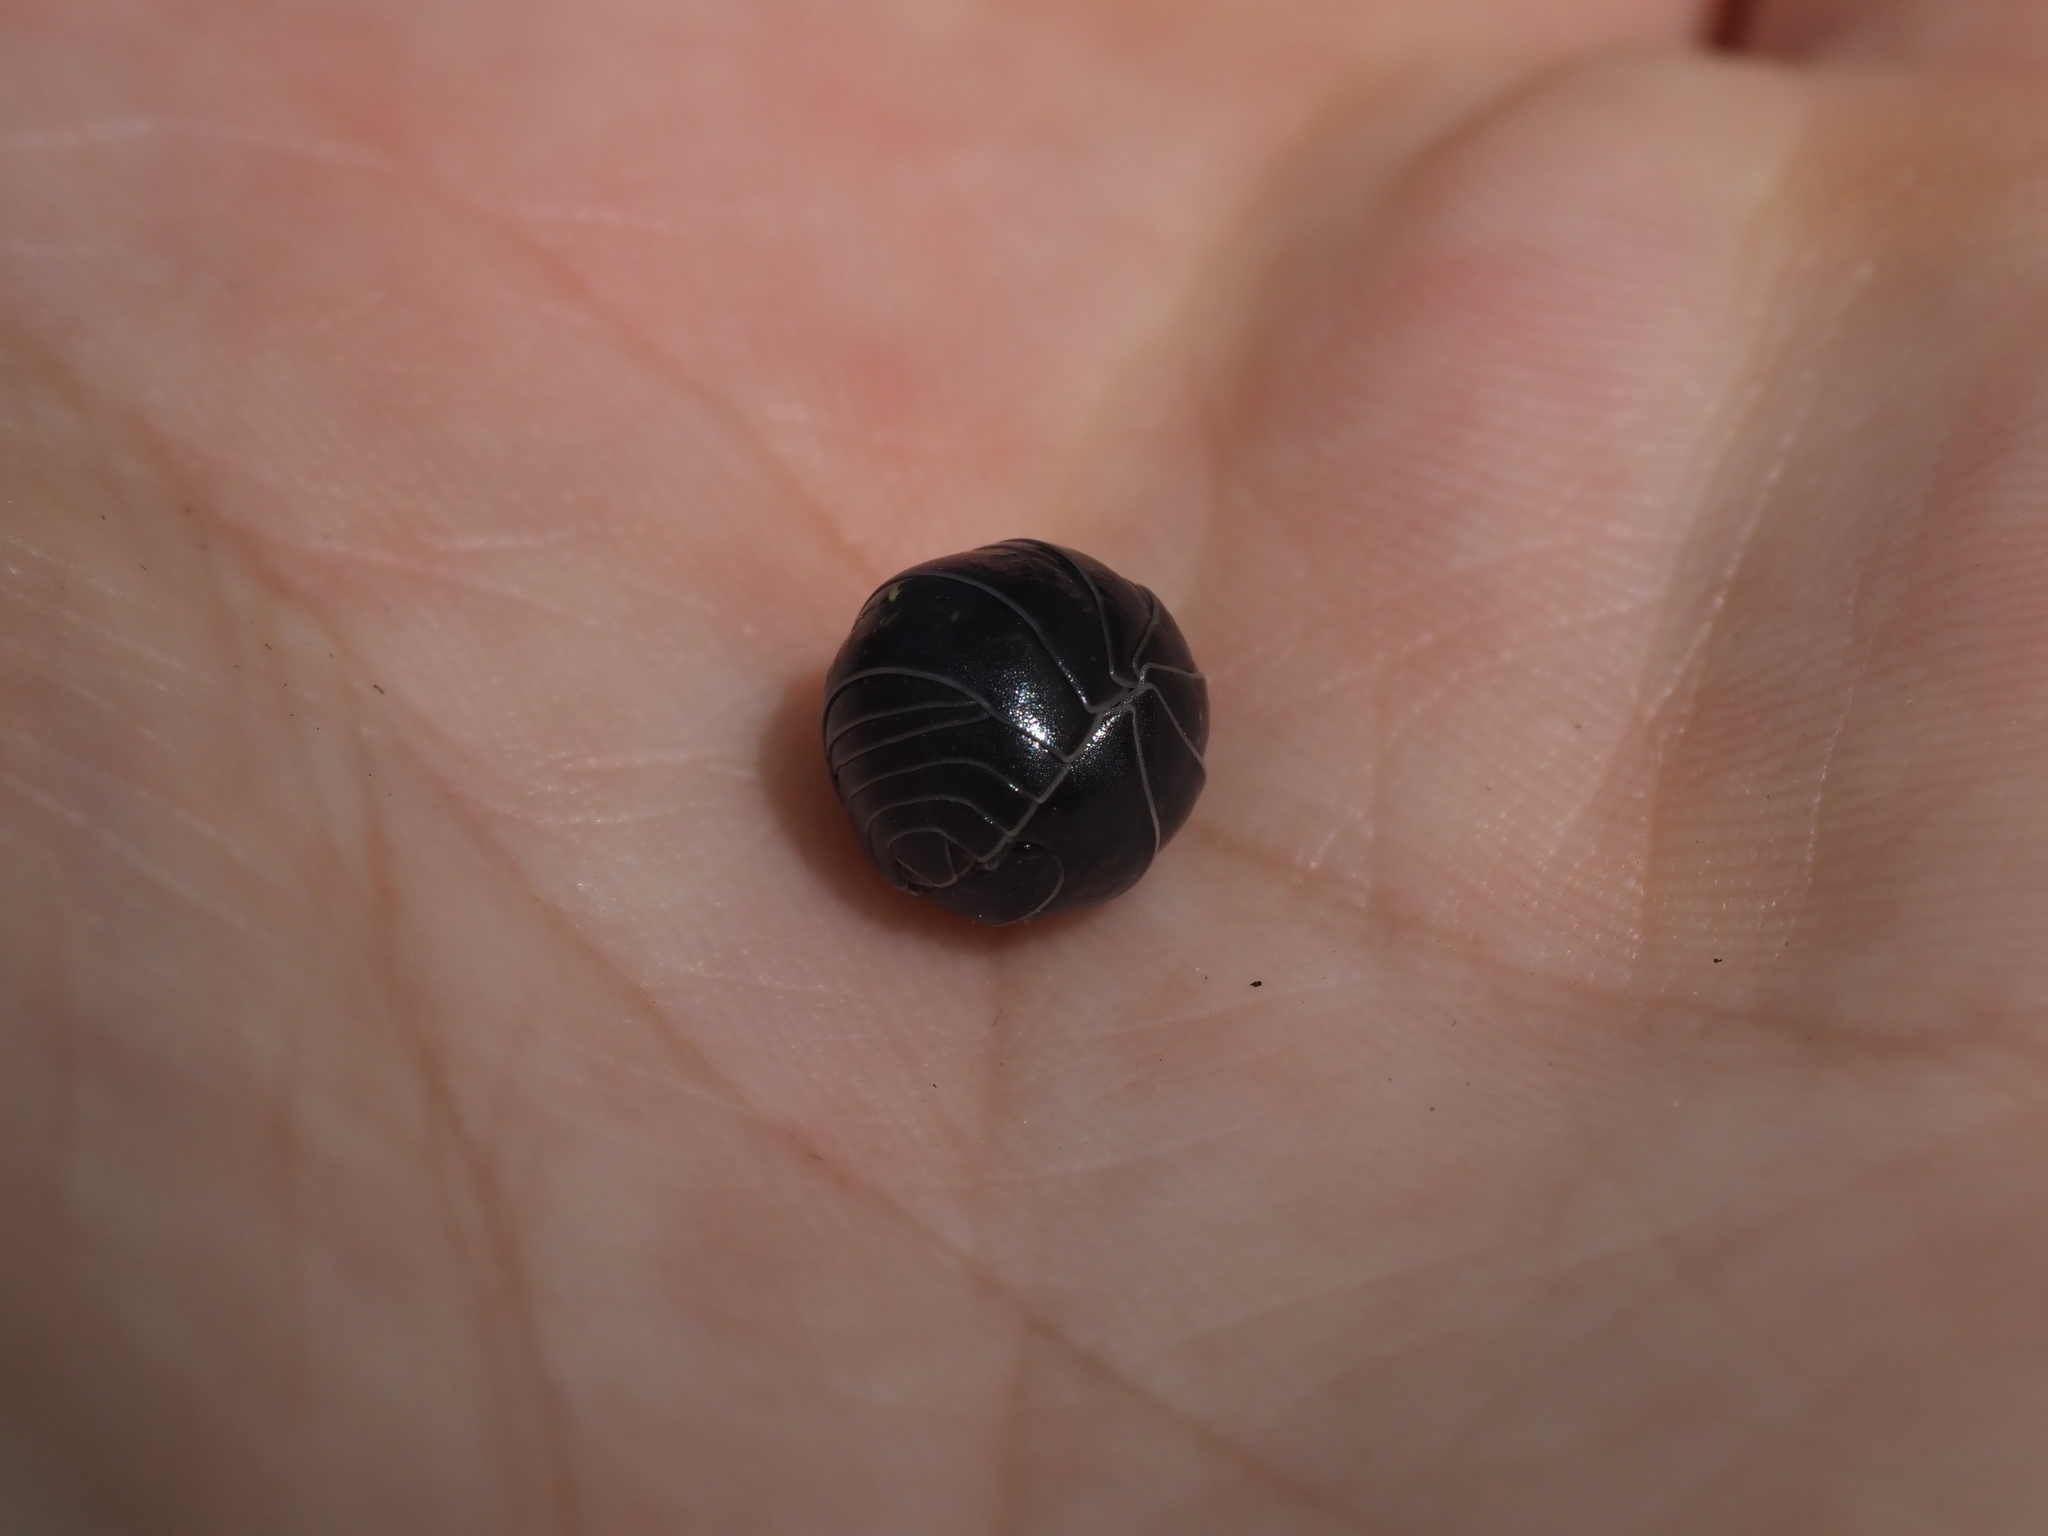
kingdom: Animalia
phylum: Arthropoda
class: Malacostraca
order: Isopoda
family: Armadillidiidae
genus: Armadillidium
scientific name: Armadillidium vulgare
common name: Common pill woodlouse
